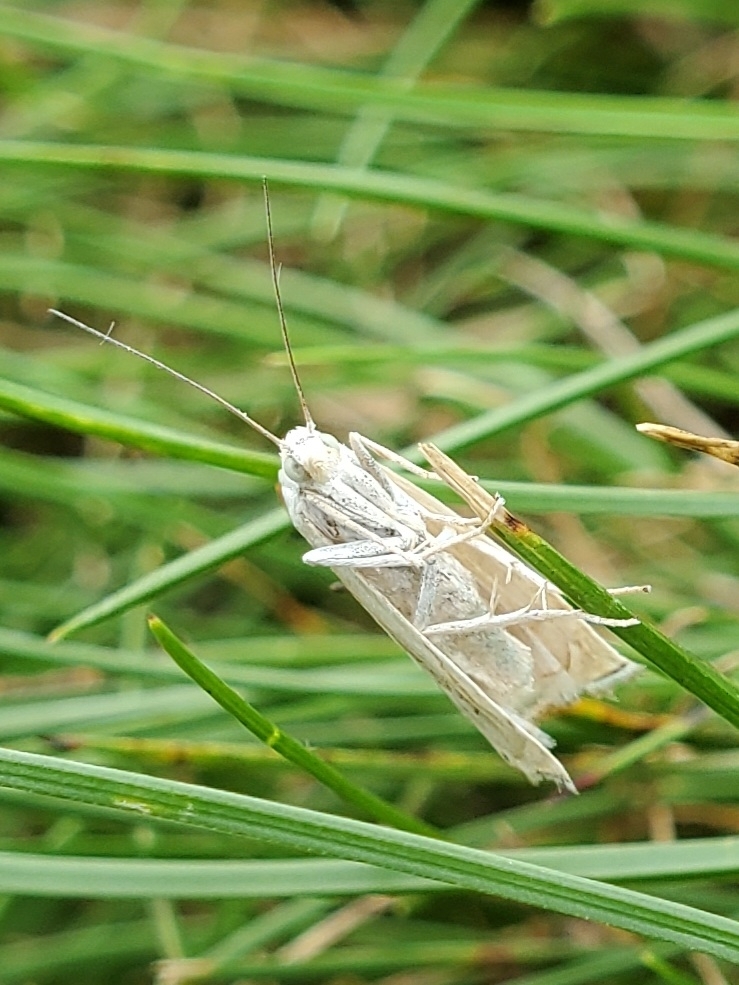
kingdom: Animalia
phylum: Arthropoda
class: Insecta
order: Lepidoptera
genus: Crambina
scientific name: Crambina
